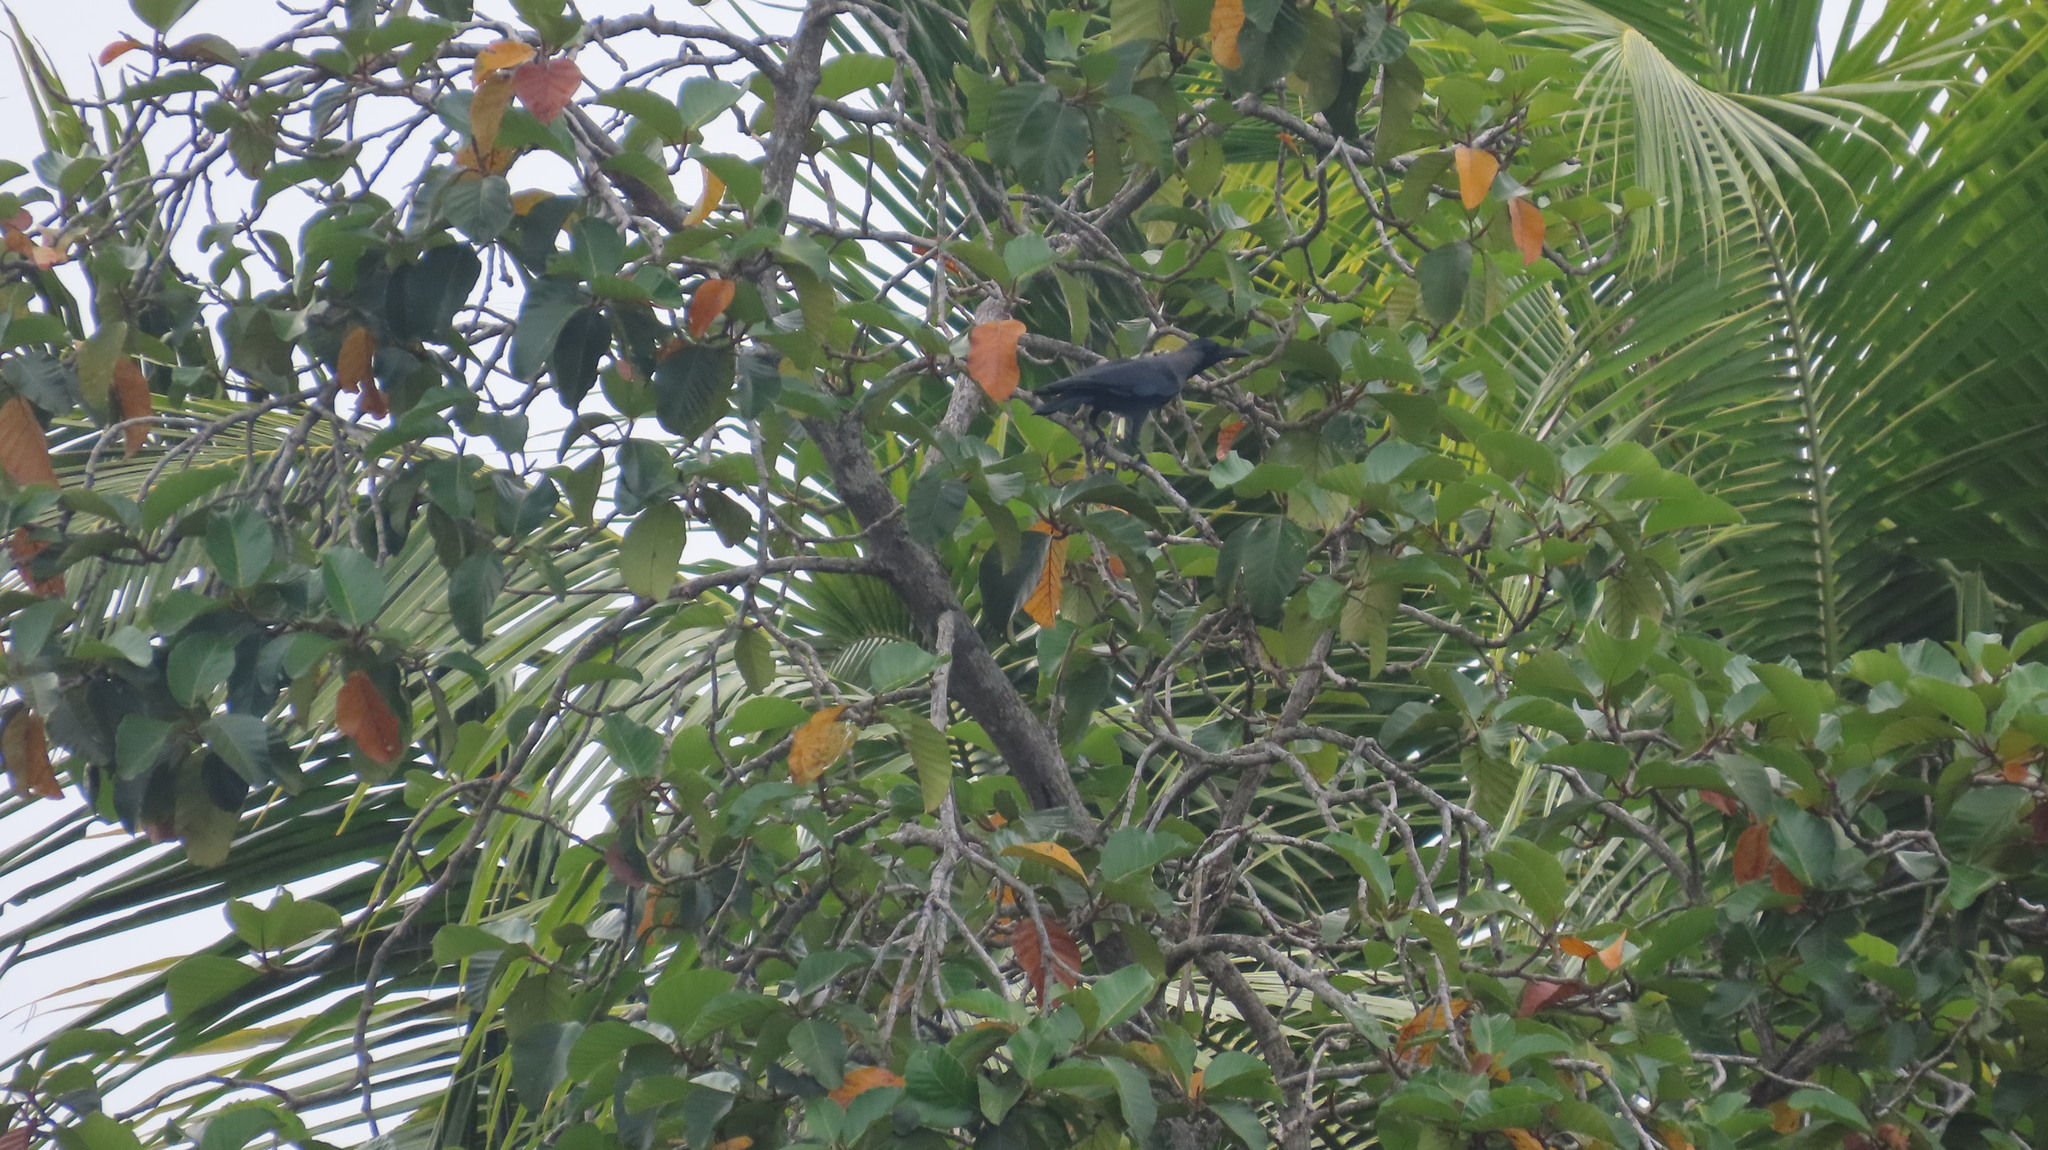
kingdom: Animalia
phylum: Chordata
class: Aves
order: Passeriformes
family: Corvidae
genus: Corvus
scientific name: Corvus splendens
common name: House crow
